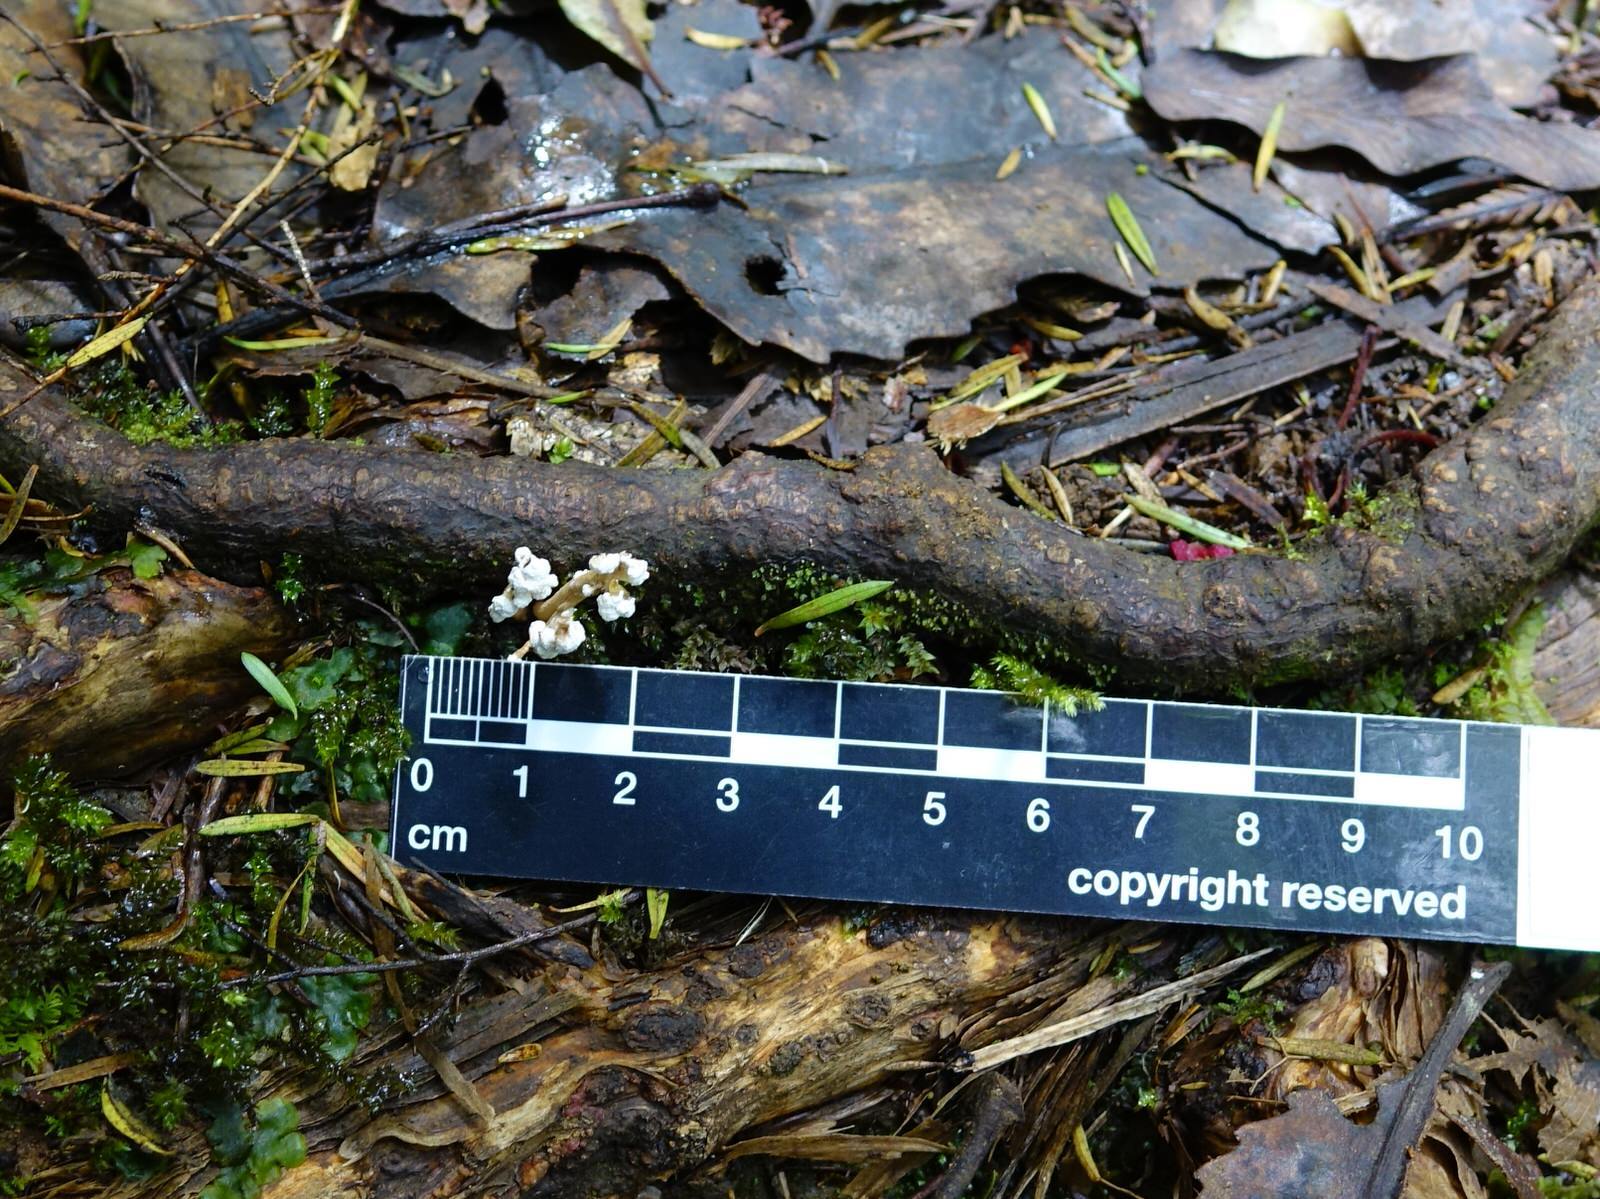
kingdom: Fungi
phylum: Ascomycota
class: Sordariomycetes
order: Hypocreales
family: Cordycipitaceae
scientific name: Cordycipitaceae
